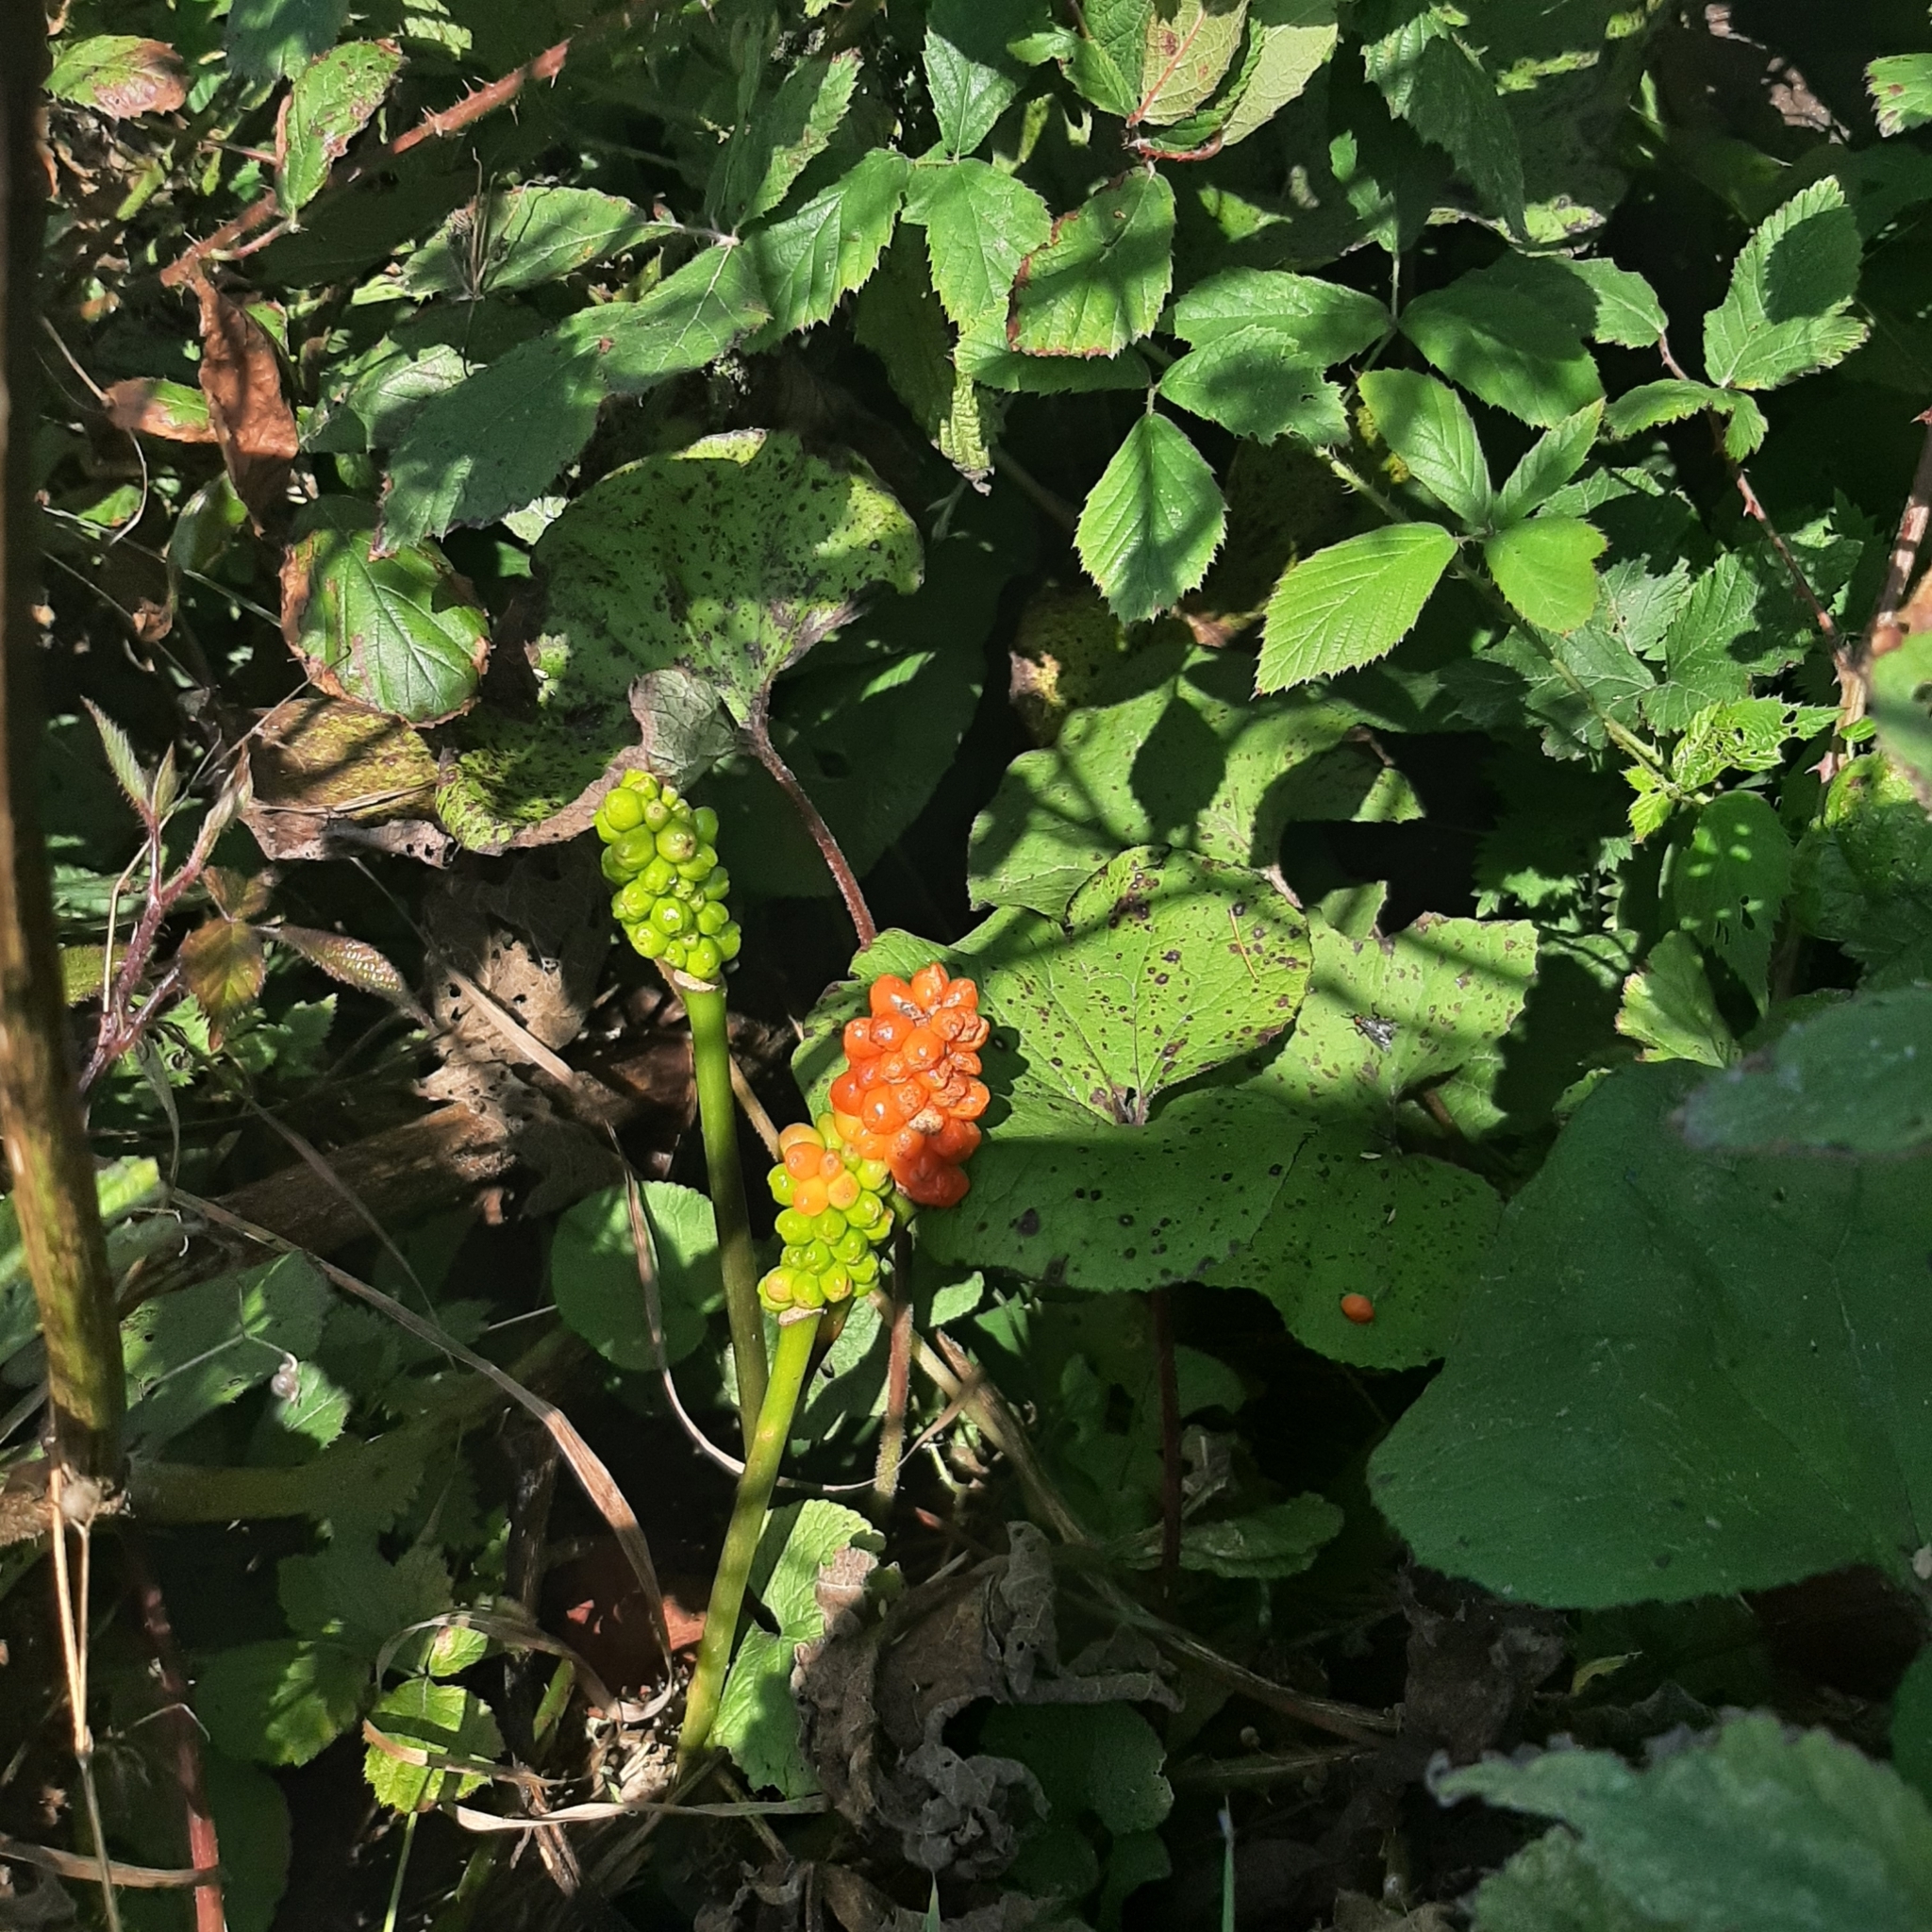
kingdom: Plantae
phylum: Tracheophyta
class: Liliopsida
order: Alismatales
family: Araceae
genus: Arum
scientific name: Arum maculatum
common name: Lords-and-ladies
